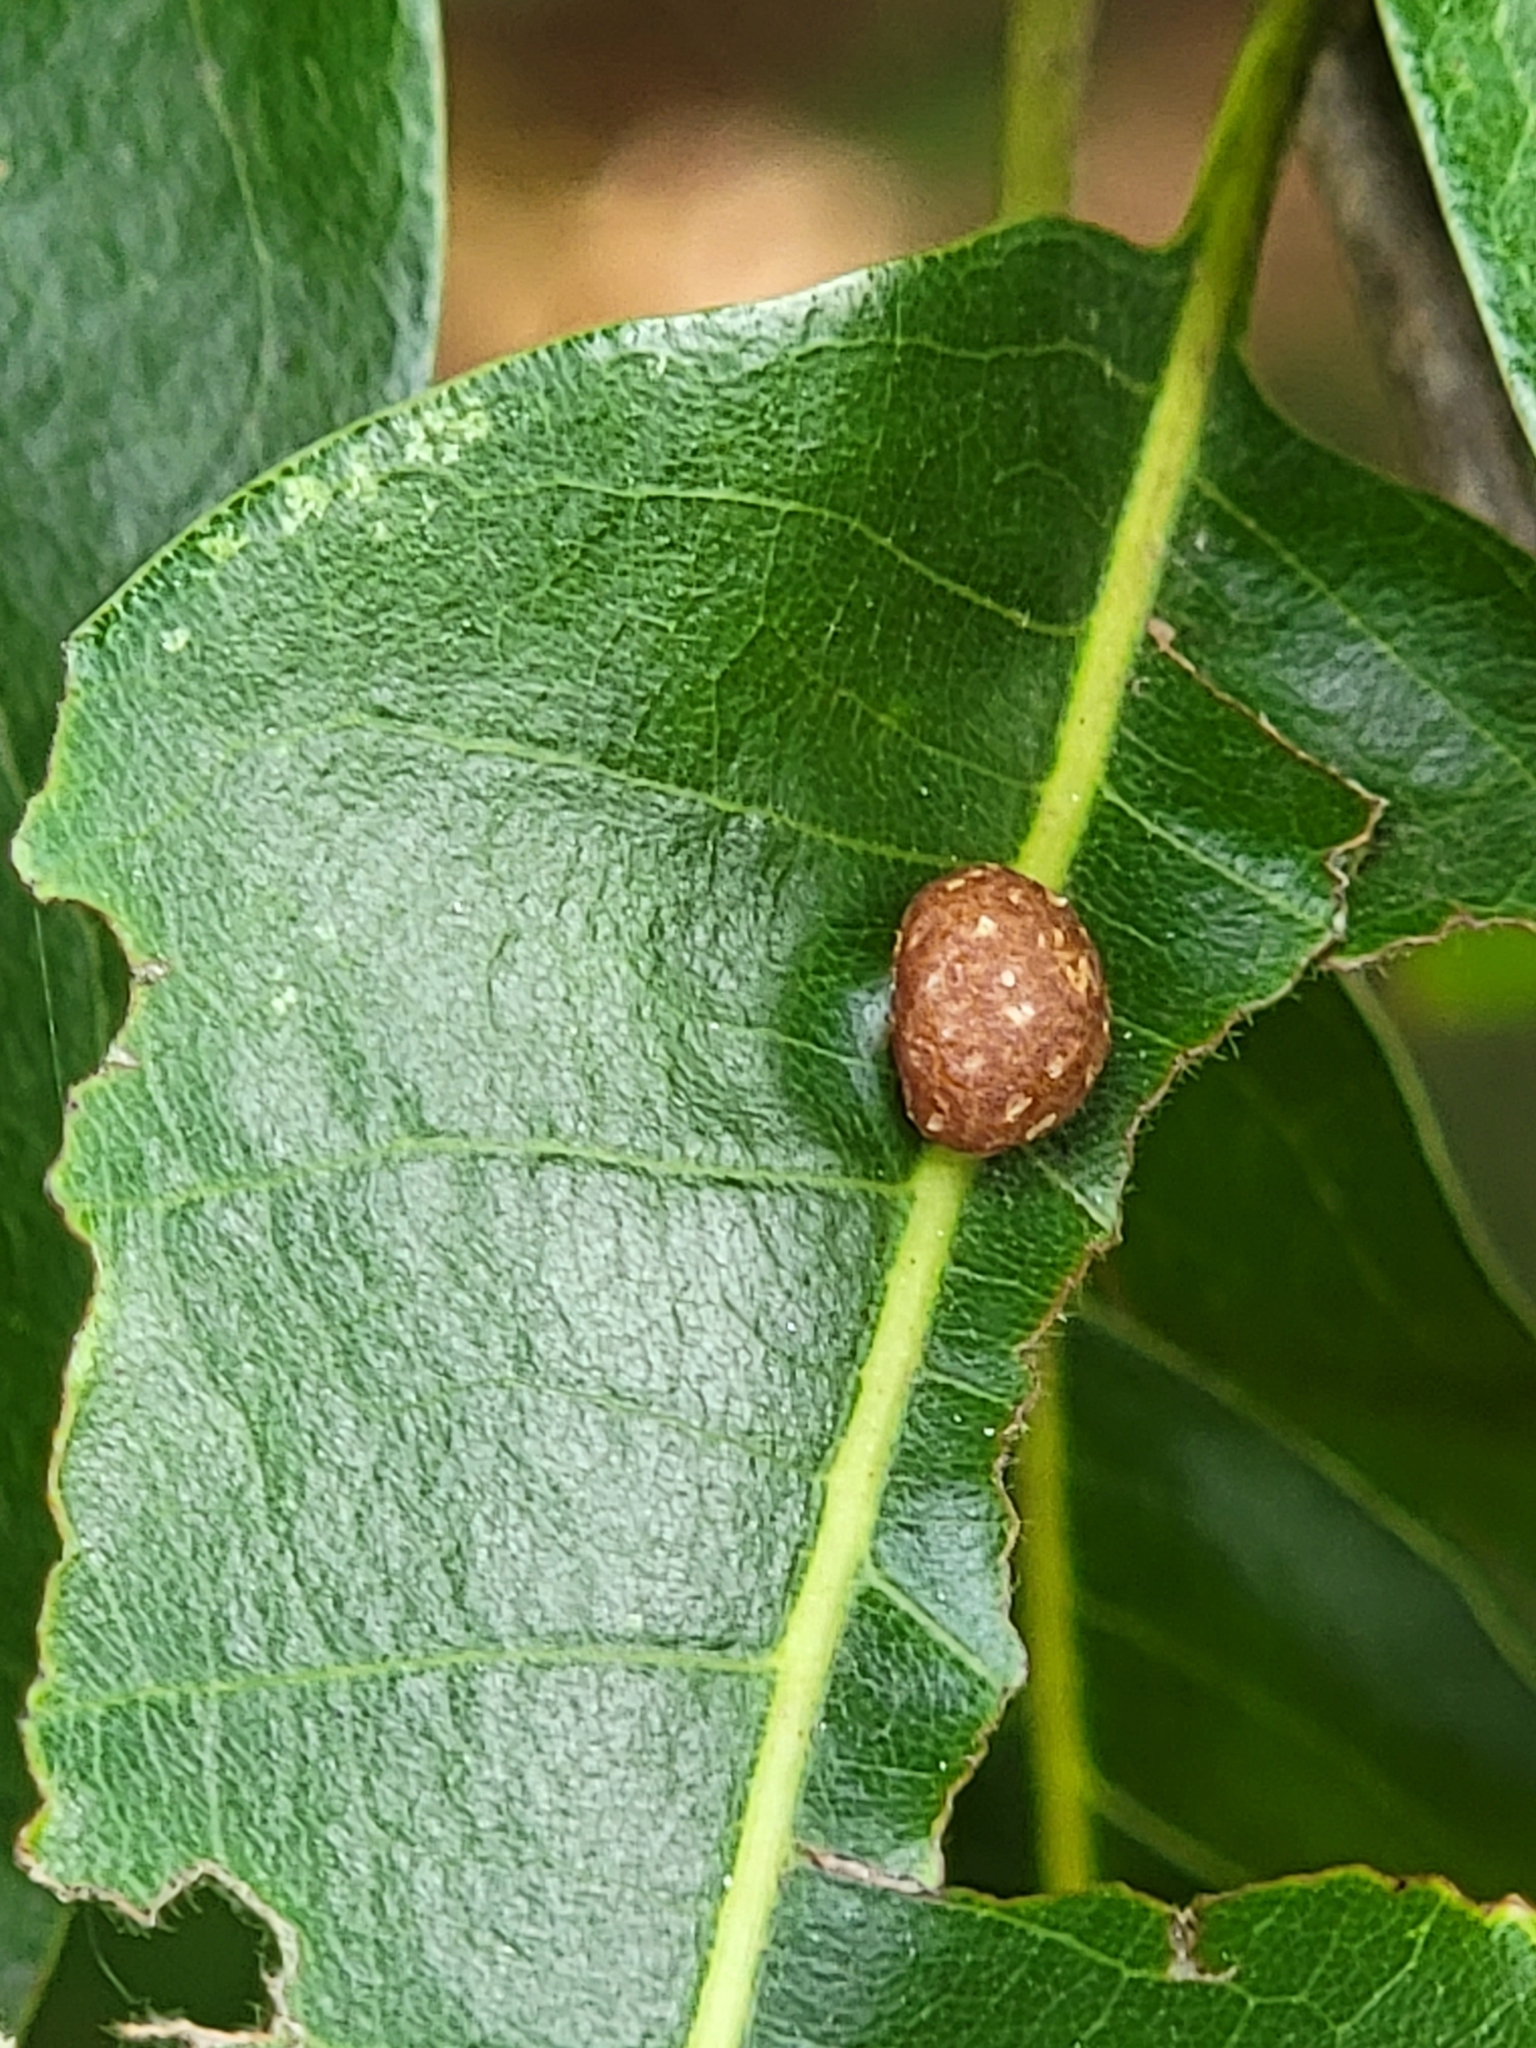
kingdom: Animalia
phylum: Arthropoda
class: Insecta
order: Diptera
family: Cecidomyiidae
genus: Polystepha
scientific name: Polystepha pilulae
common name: Oak leaf gall midge
